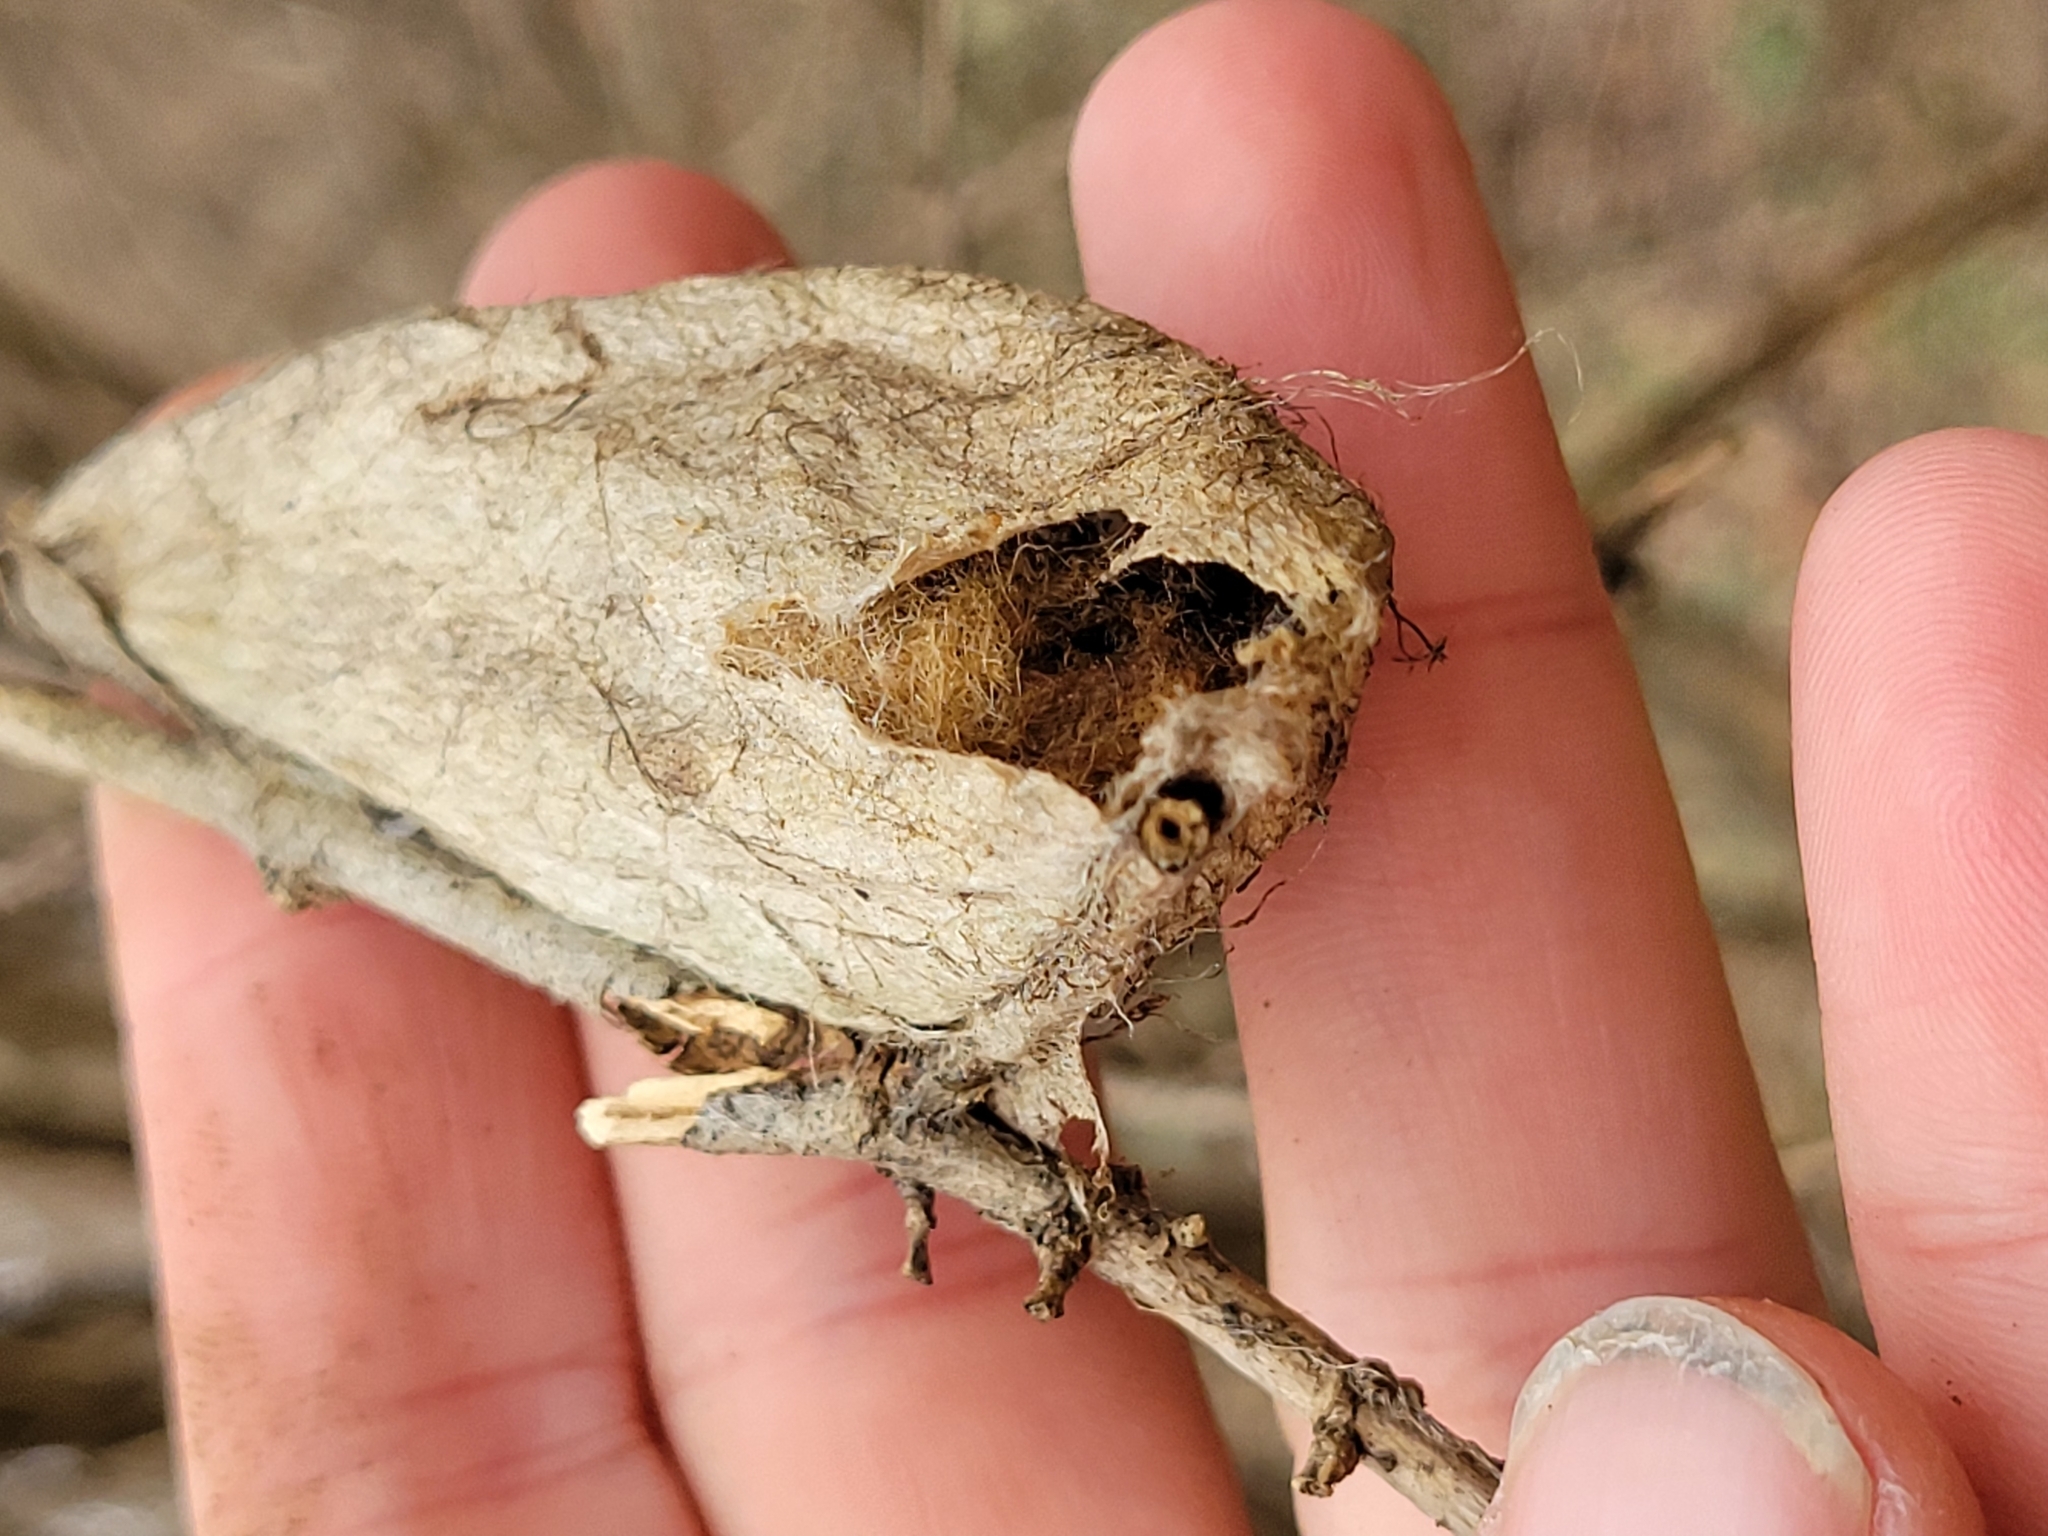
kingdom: Animalia
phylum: Arthropoda
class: Insecta
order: Lepidoptera
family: Saturniidae
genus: Hyalophora
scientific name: Hyalophora cecropia
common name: Cecropia silkmoth
